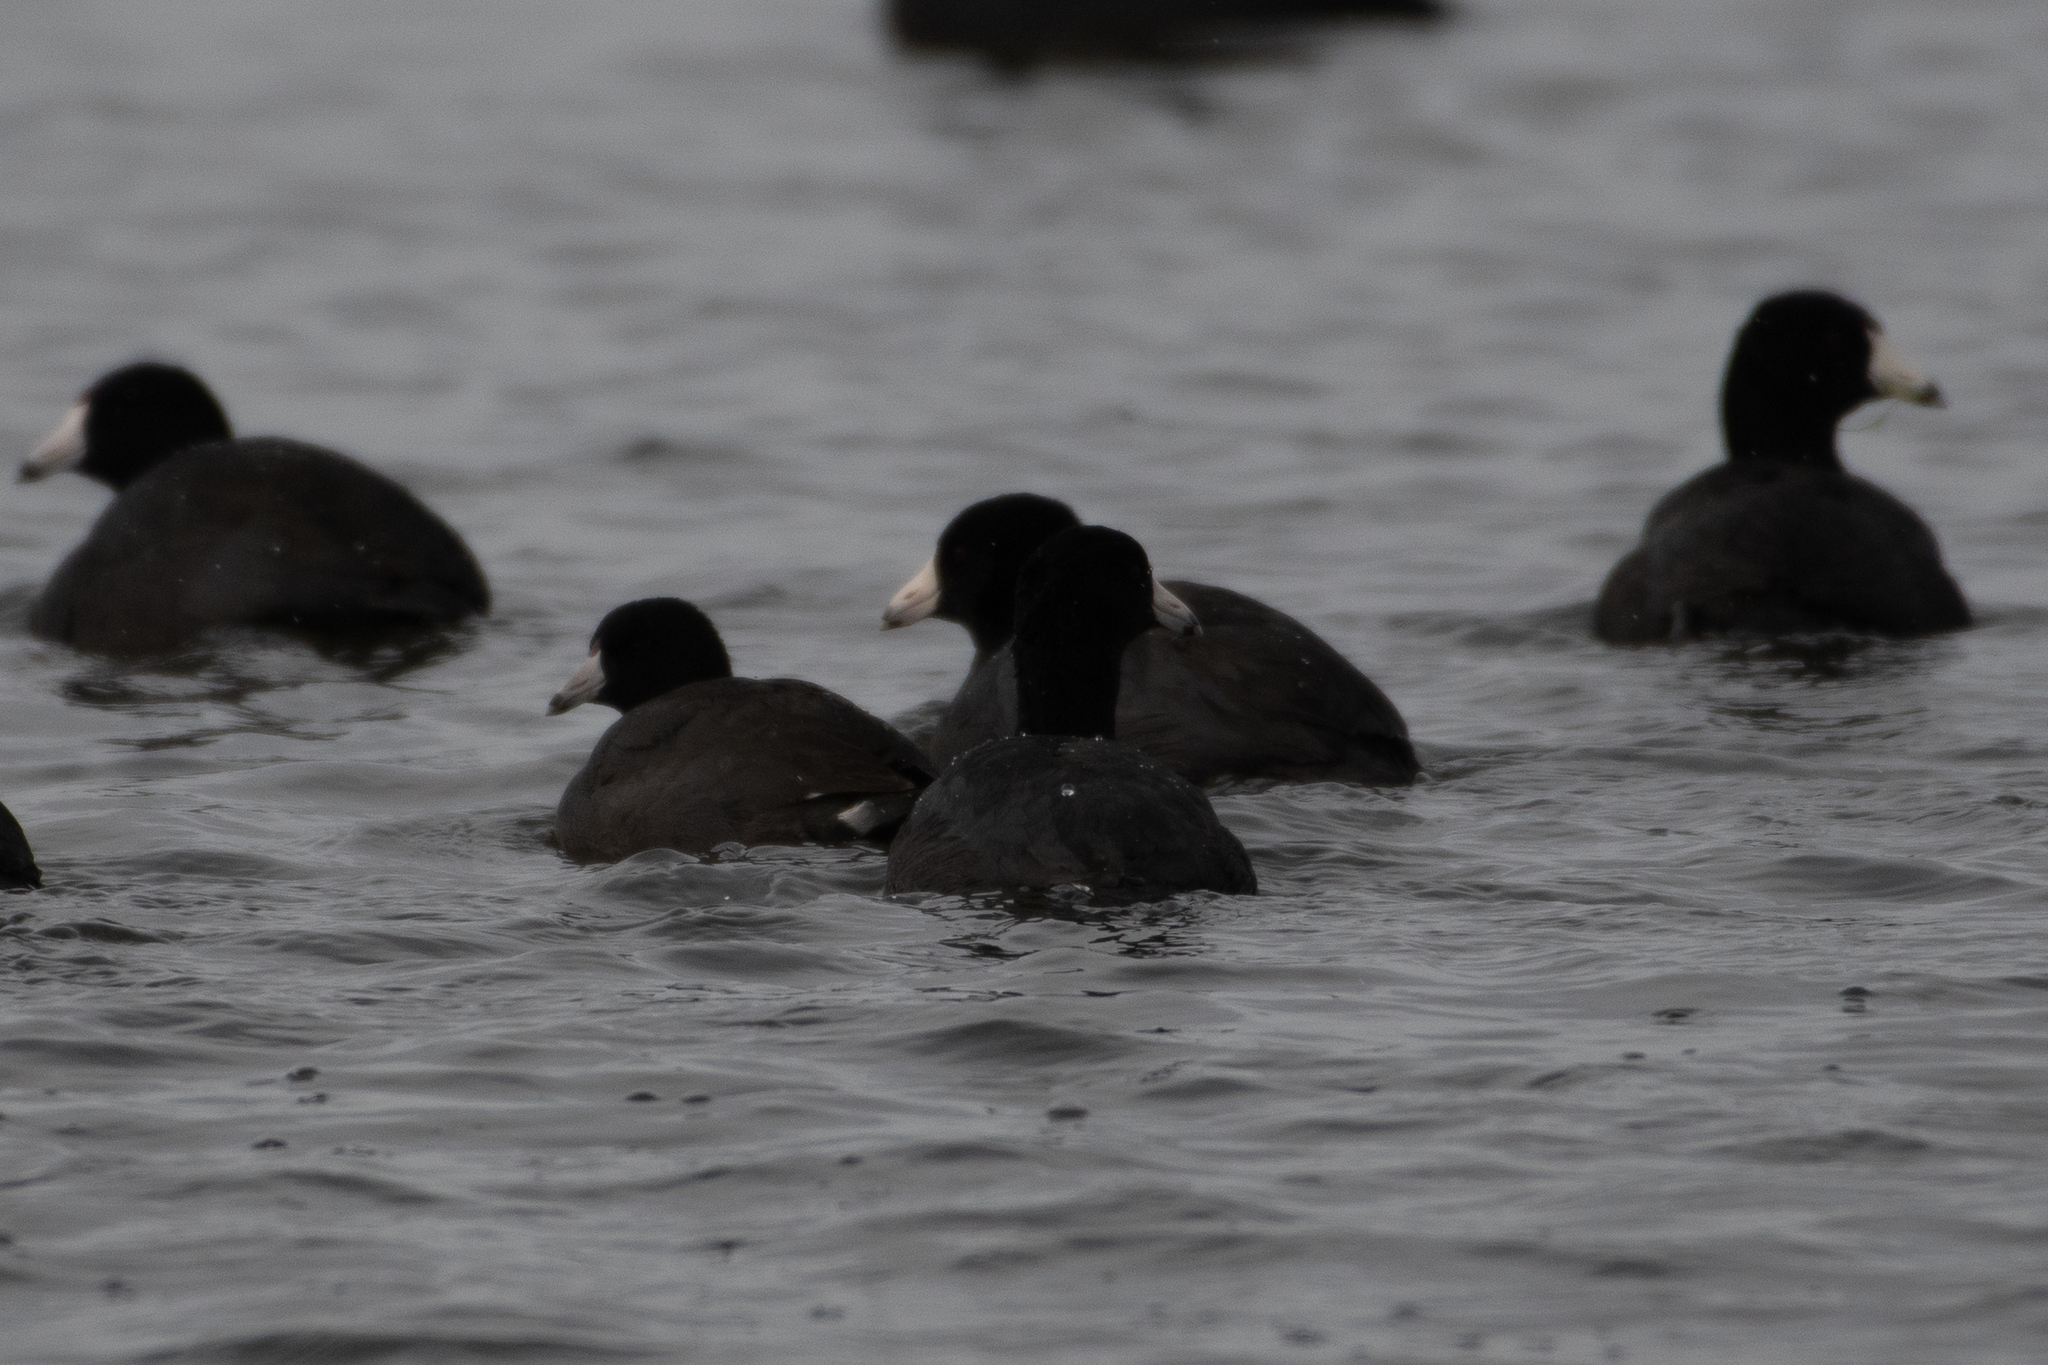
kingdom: Animalia
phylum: Chordata
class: Aves
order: Gruiformes
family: Rallidae
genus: Fulica
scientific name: Fulica americana
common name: American coot
